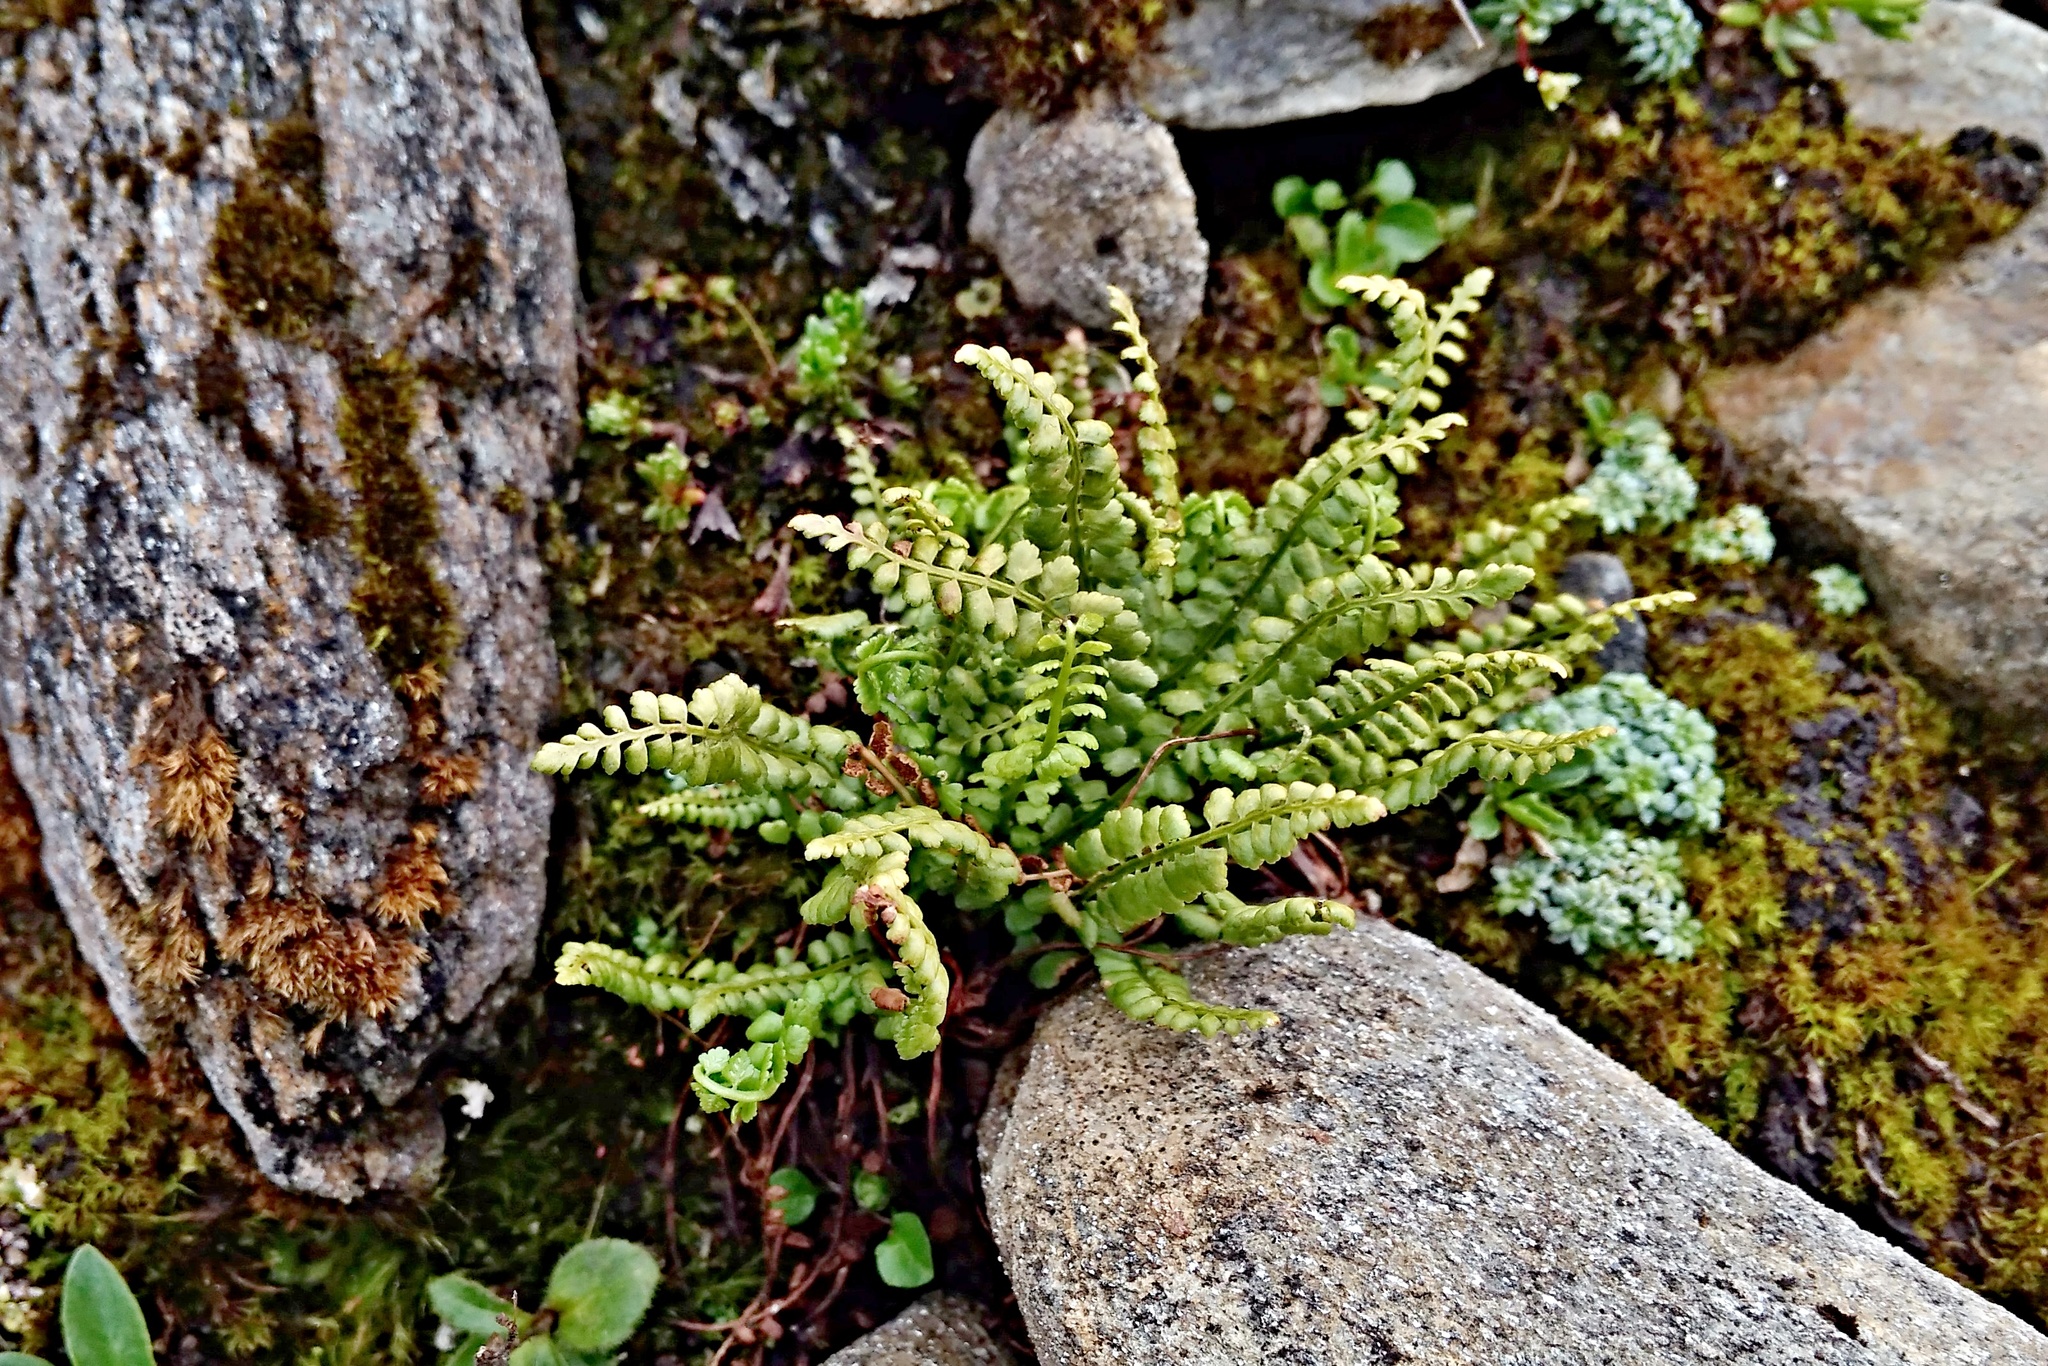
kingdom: Plantae
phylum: Tracheophyta
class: Polypodiopsida
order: Polypodiales
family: Aspleniaceae
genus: Asplenium
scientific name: Asplenium viride
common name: Green spleenwort
